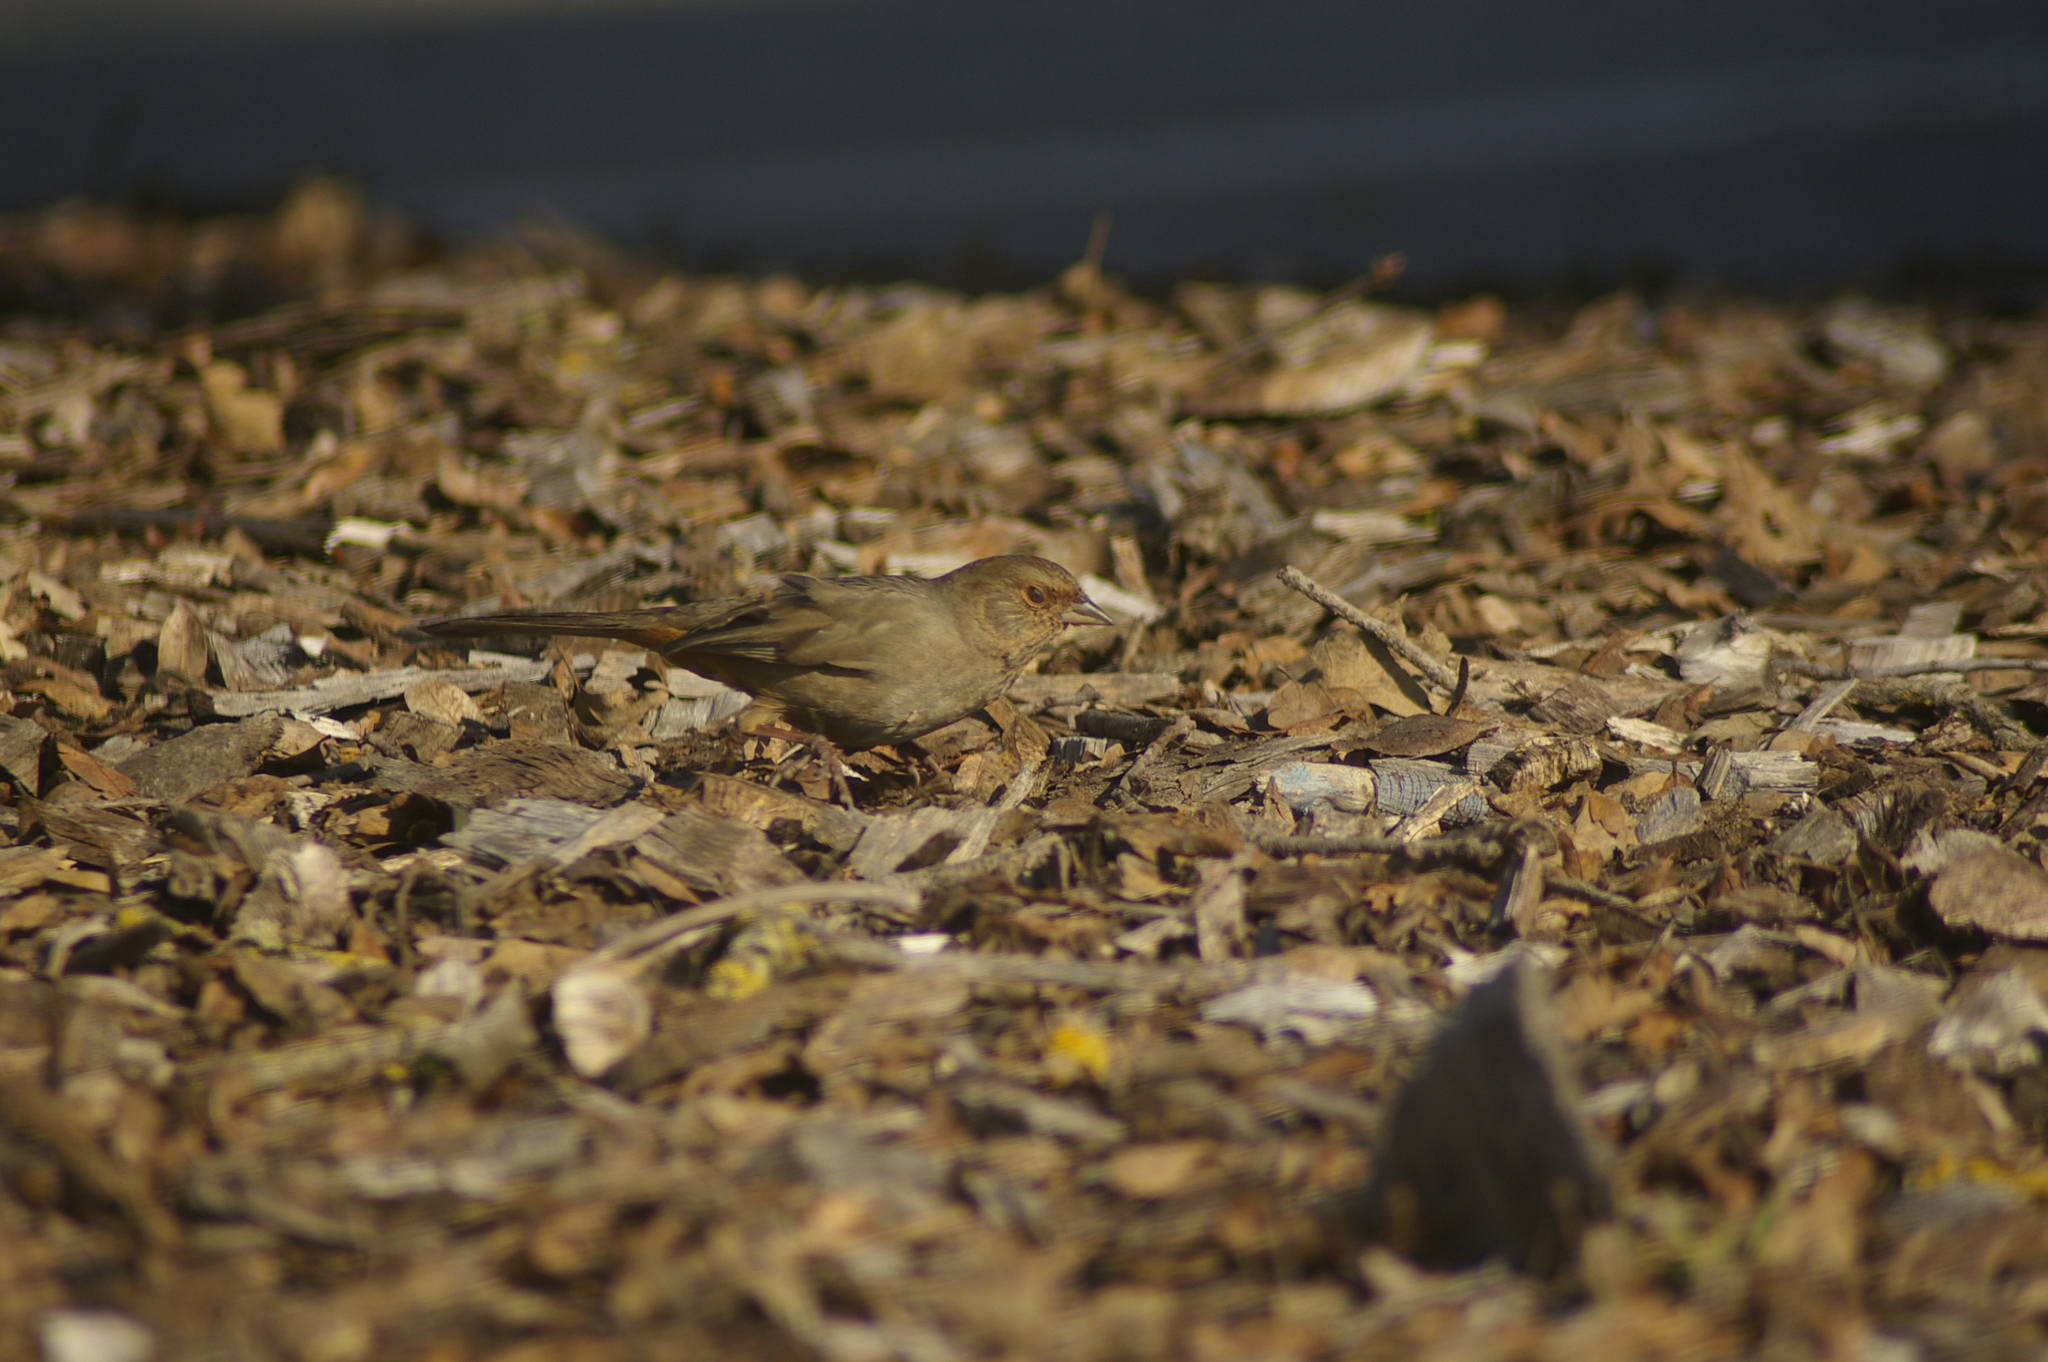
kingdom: Animalia
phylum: Chordata
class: Aves
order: Passeriformes
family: Passerellidae
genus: Melozone
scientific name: Melozone crissalis
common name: California towhee
